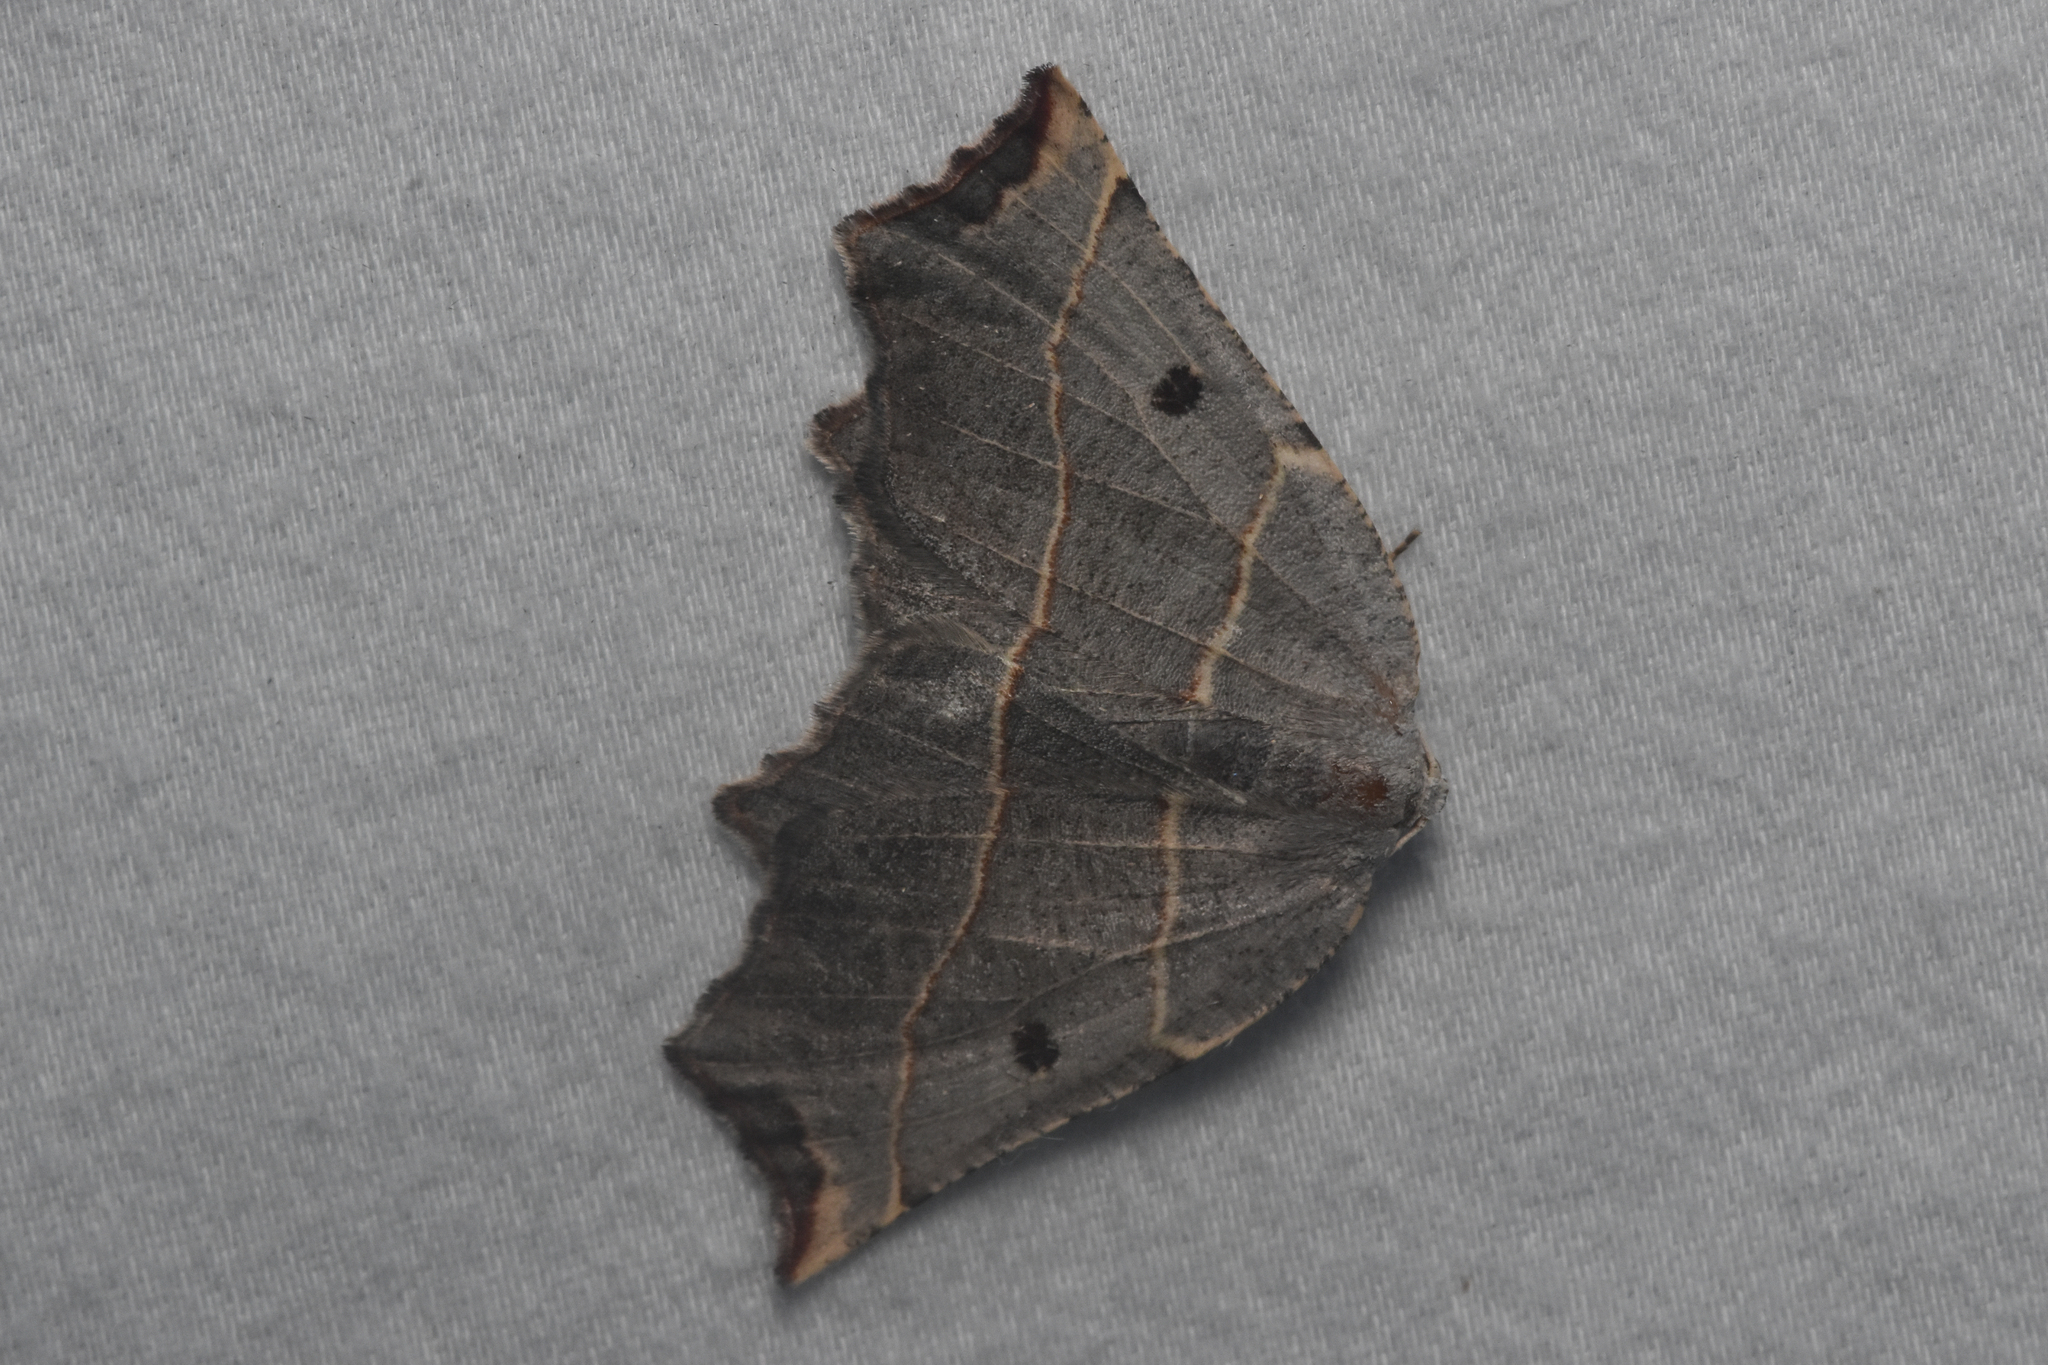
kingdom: Animalia
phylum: Arthropoda
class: Insecta
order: Lepidoptera
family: Geometridae
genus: Metanema
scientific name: Metanema inatomaria
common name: Pale metanema
